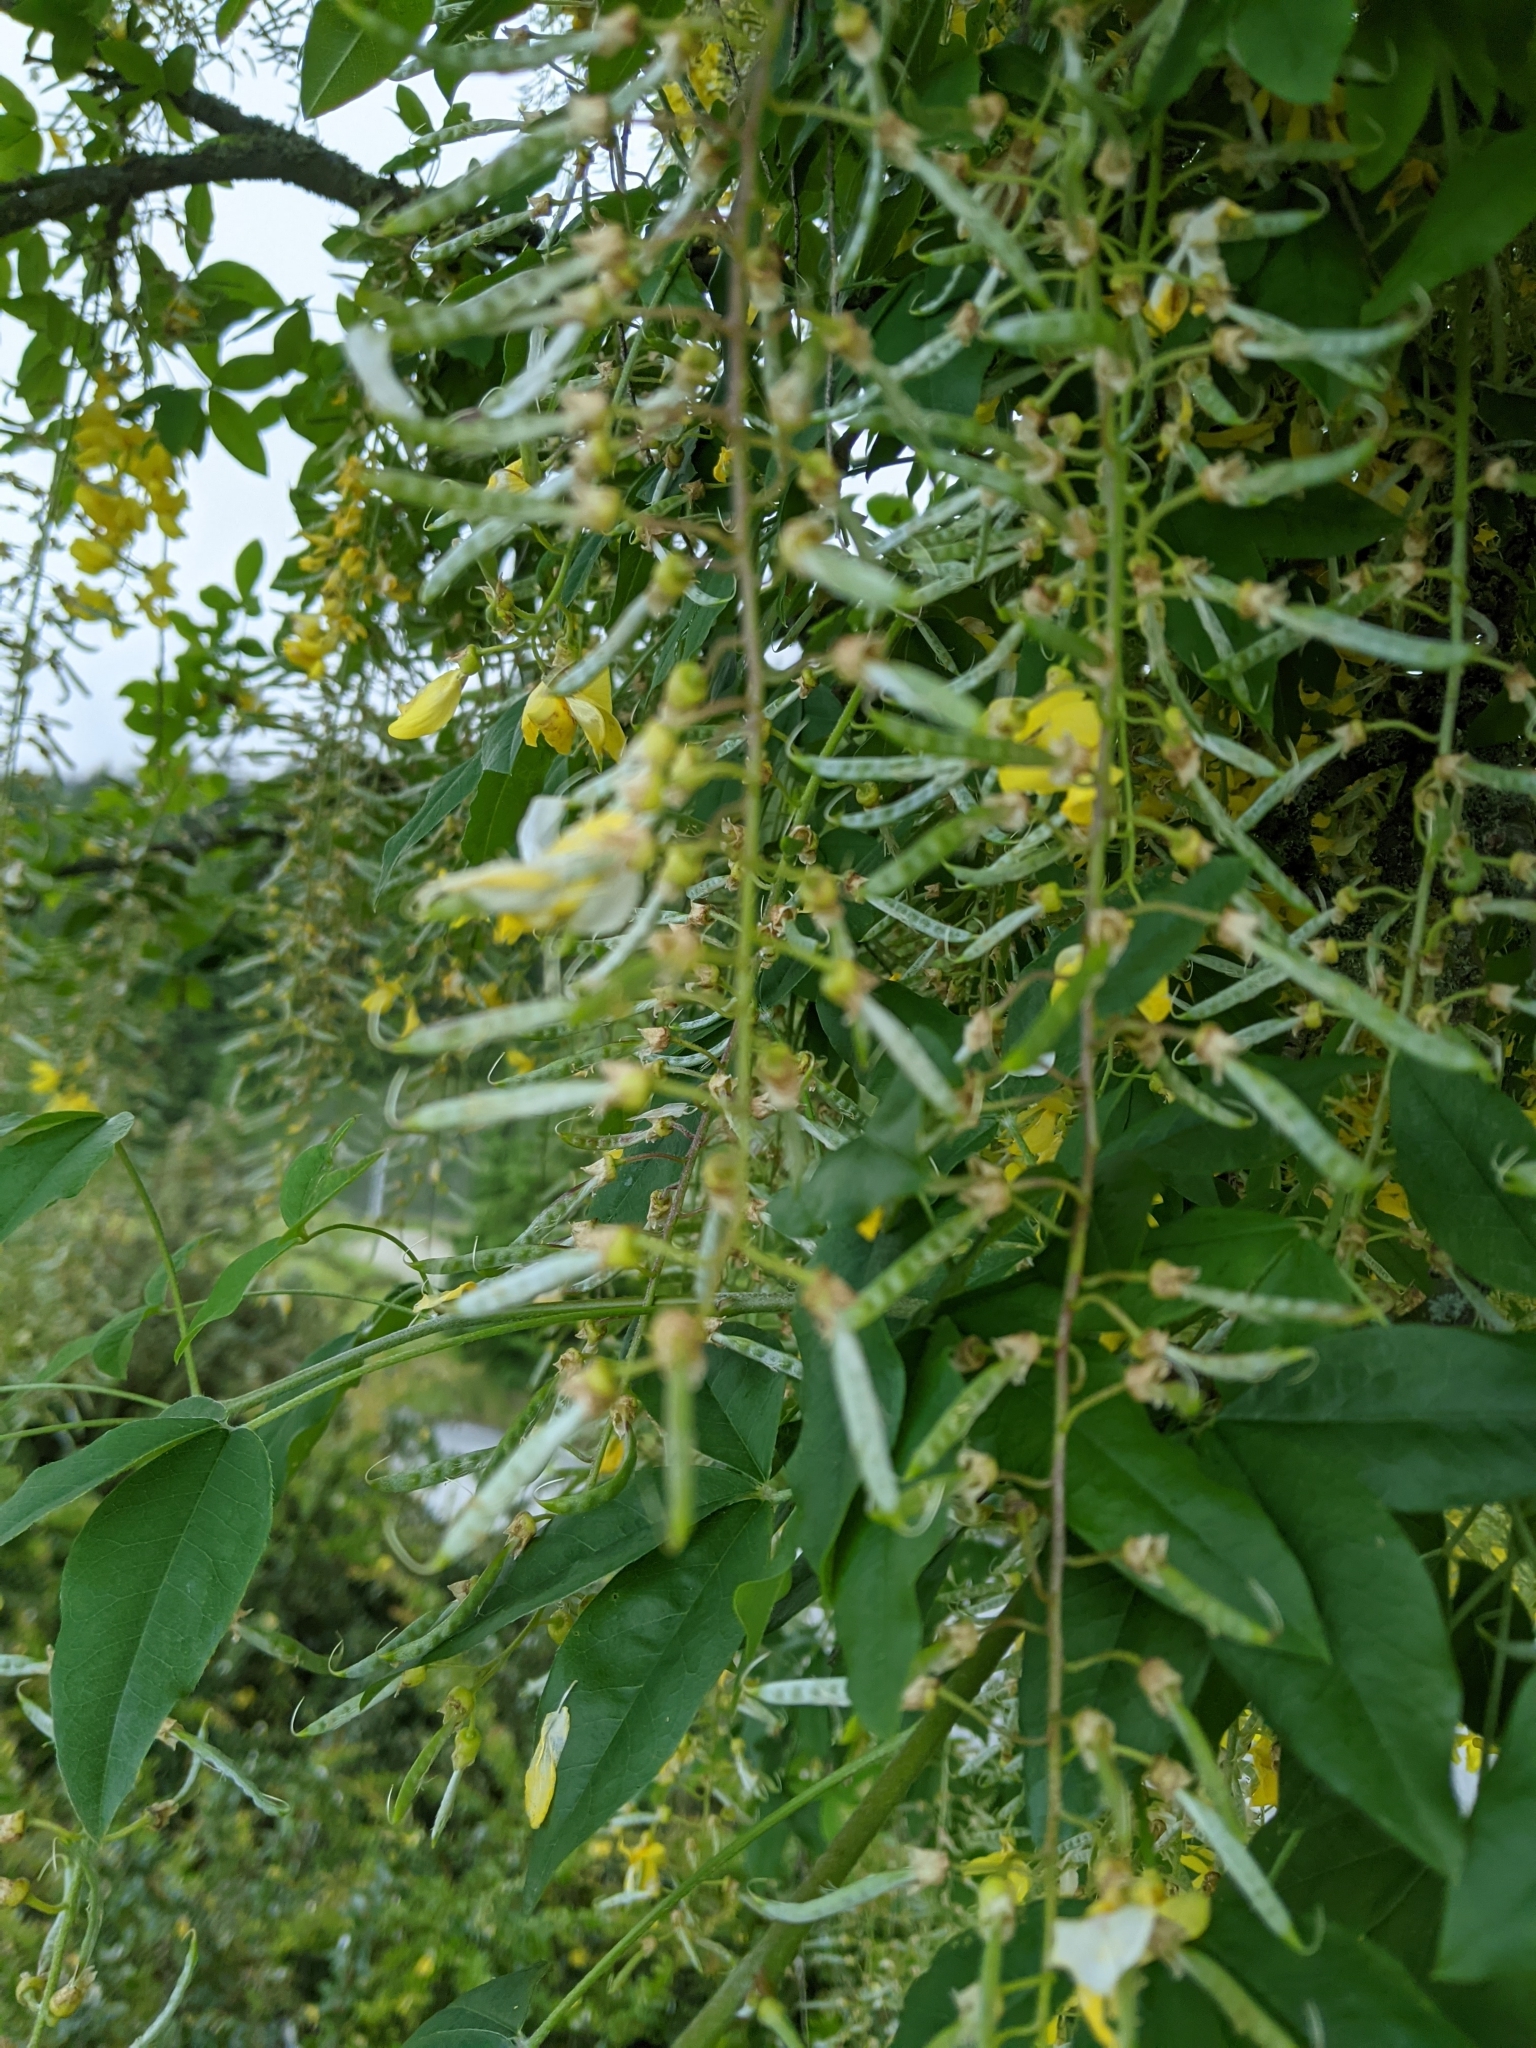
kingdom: Plantae
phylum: Tracheophyta
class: Magnoliopsida
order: Fabales
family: Fabaceae
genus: Laburnum
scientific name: Laburnum anagyroides
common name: Laburnum
